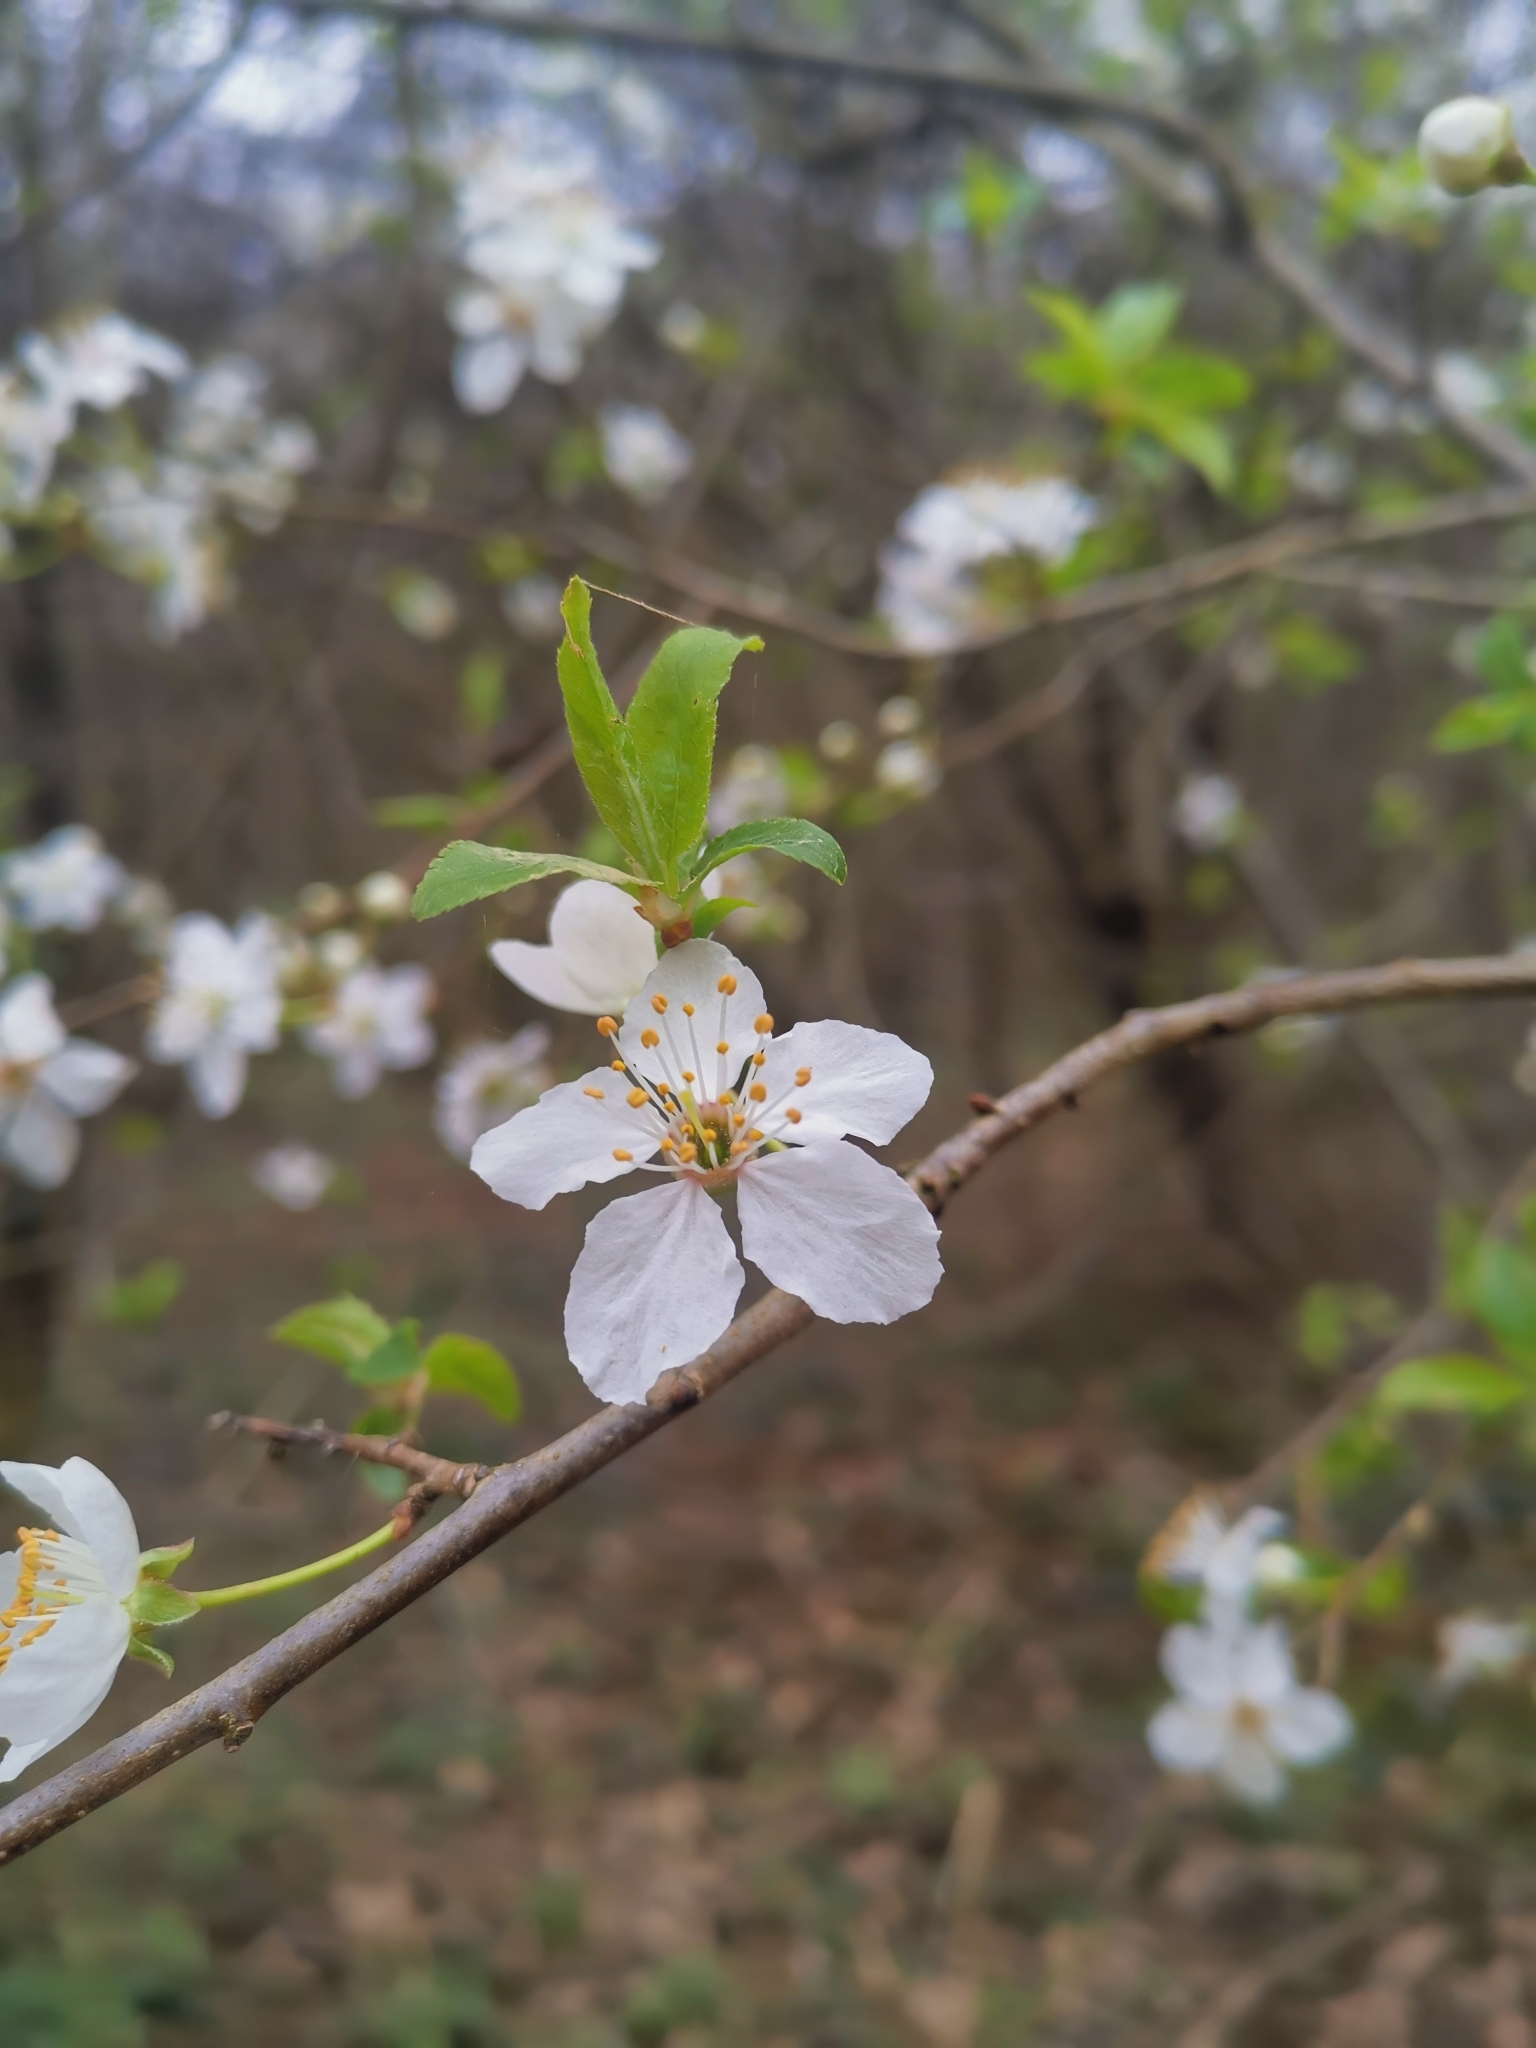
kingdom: Plantae
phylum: Tracheophyta
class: Magnoliopsida
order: Rosales
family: Rosaceae
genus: Prunus
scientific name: Prunus cerasifera
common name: Cherry plum
